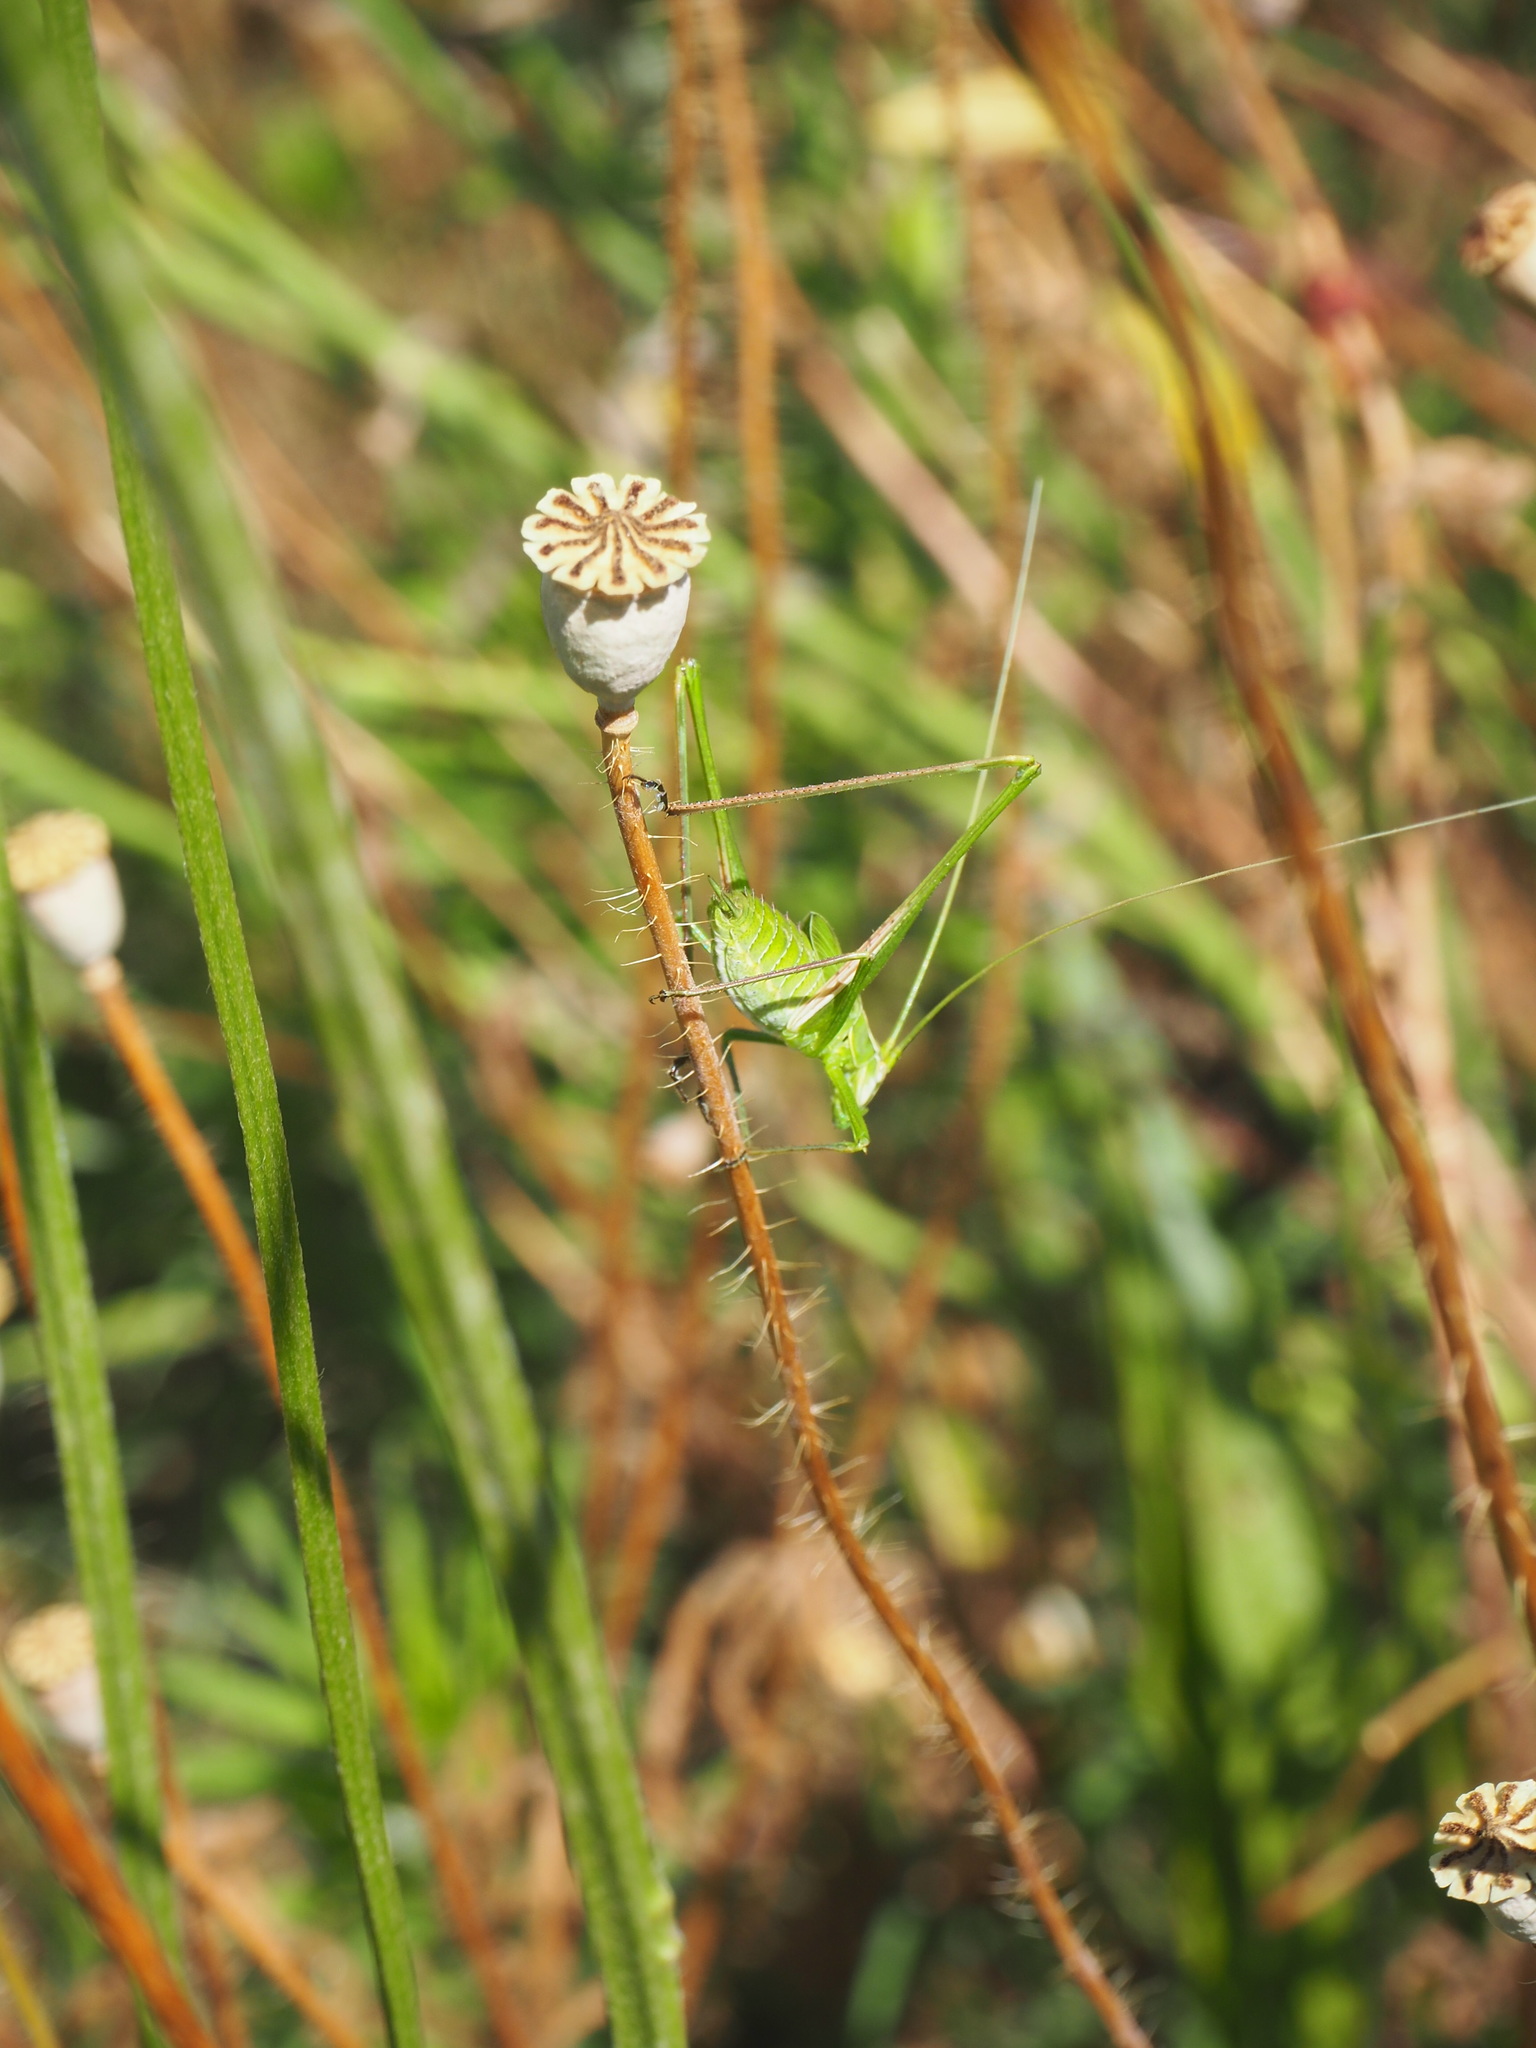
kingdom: Animalia
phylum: Arthropoda
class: Insecta
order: Orthoptera
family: Tettigoniidae
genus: Tylopsis
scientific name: Tylopsis lilifolia
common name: Lily bush-cricket
